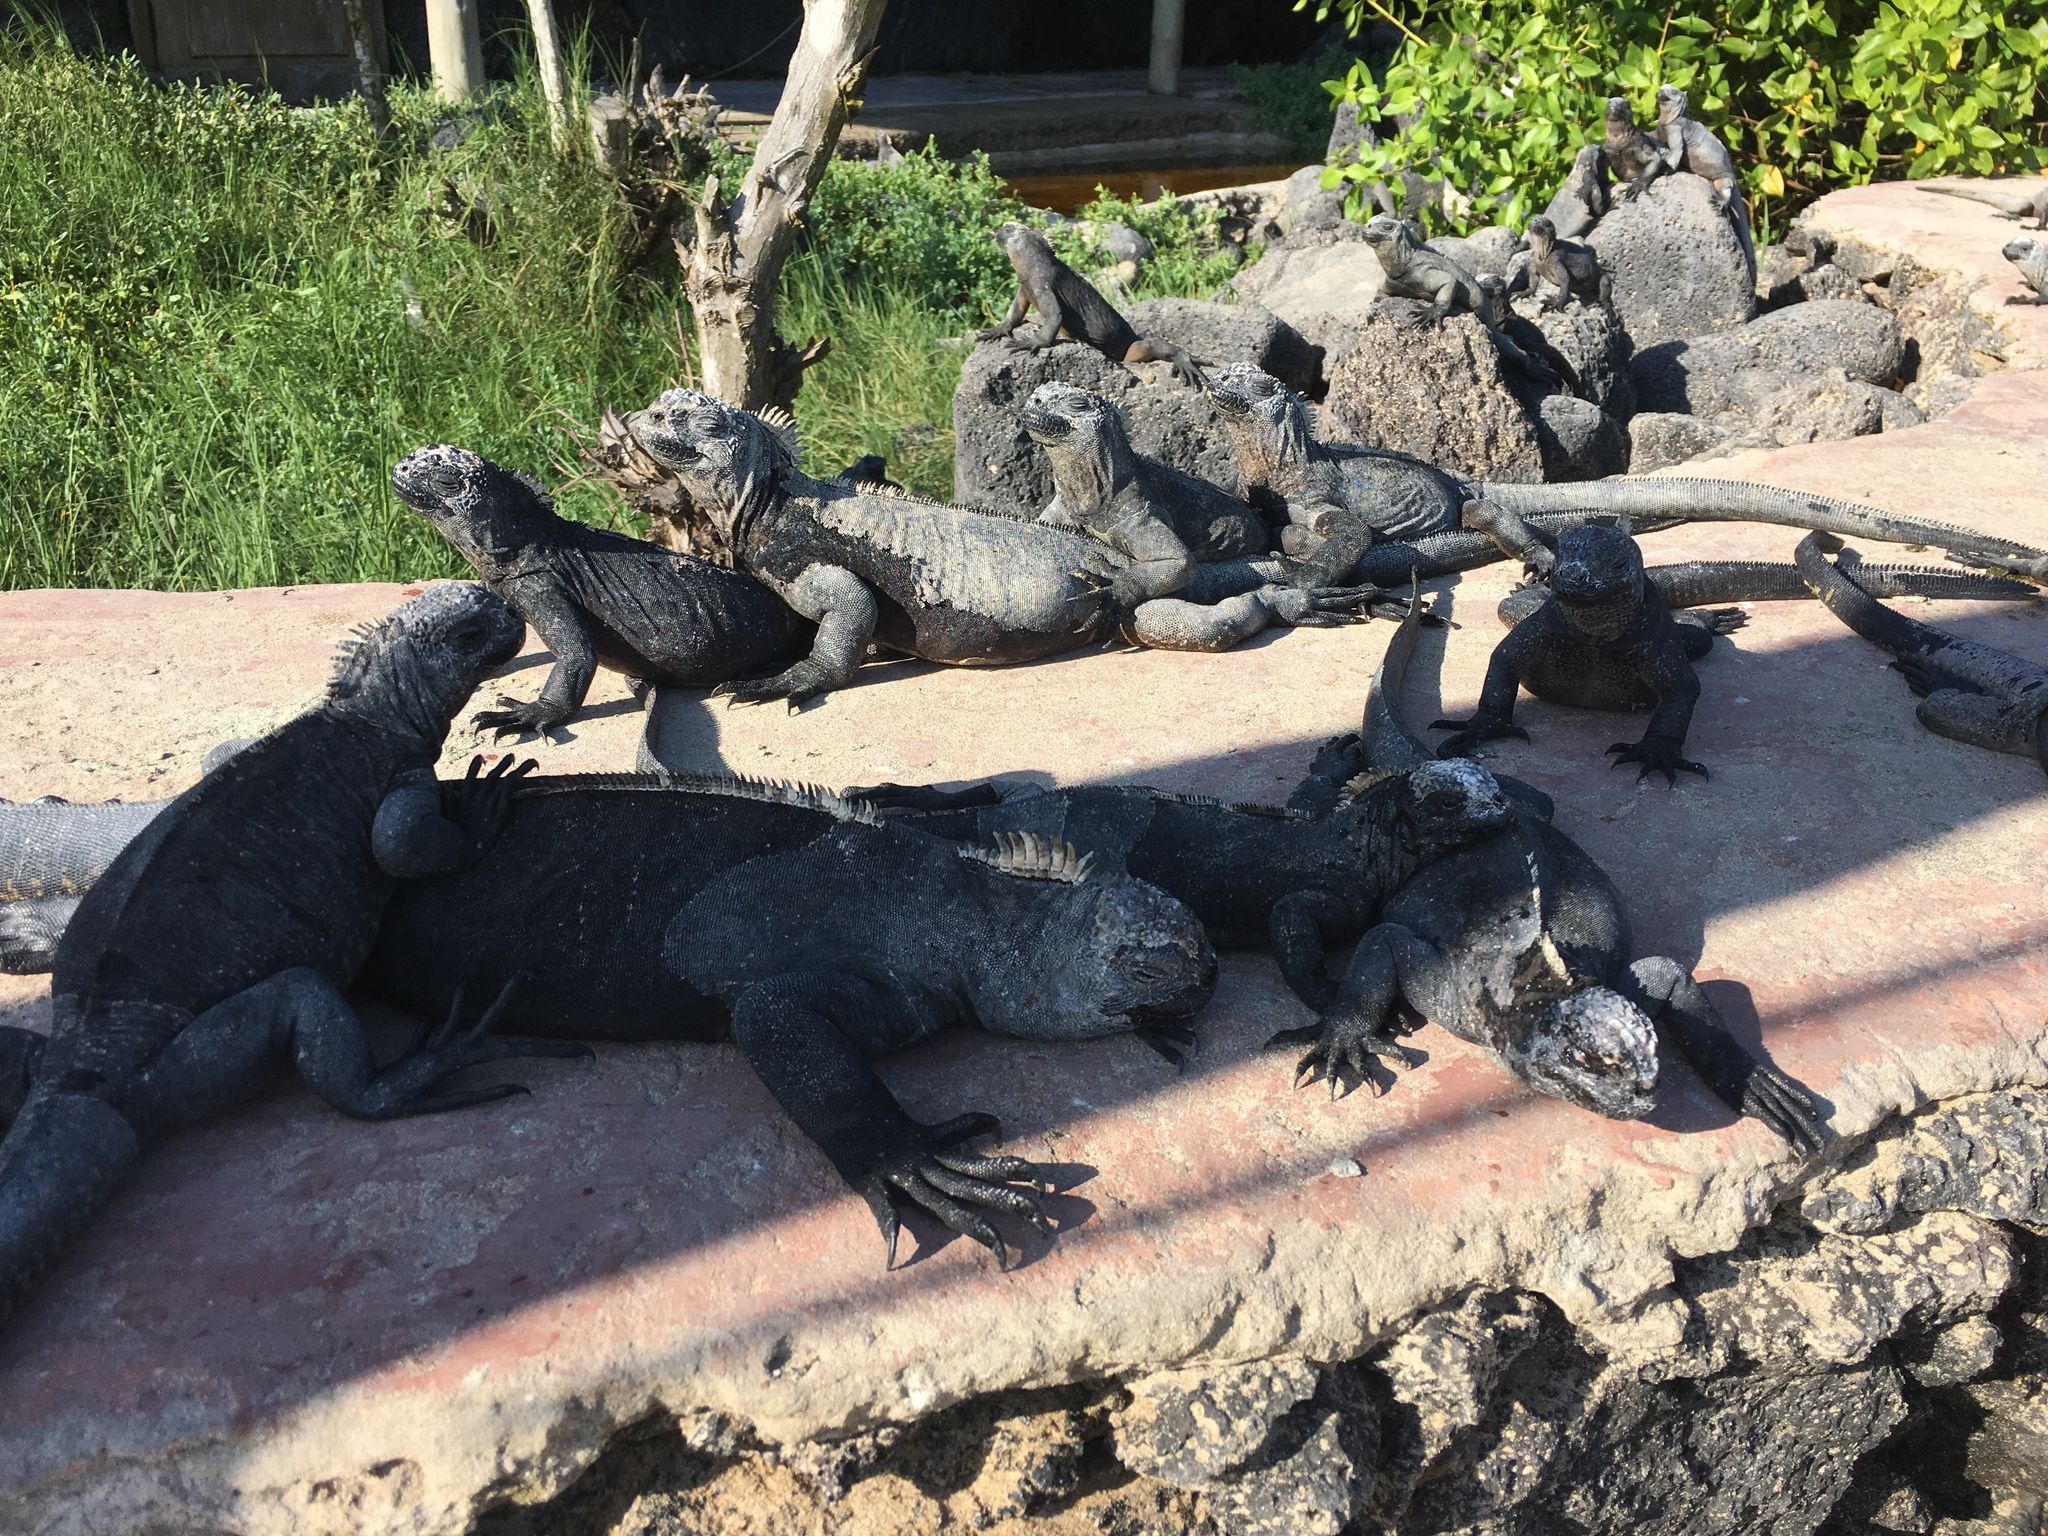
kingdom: Animalia
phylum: Chordata
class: Squamata
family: Iguanidae
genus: Amblyrhynchus
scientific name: Amblyrhynchus cristatus
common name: Marine iguana
